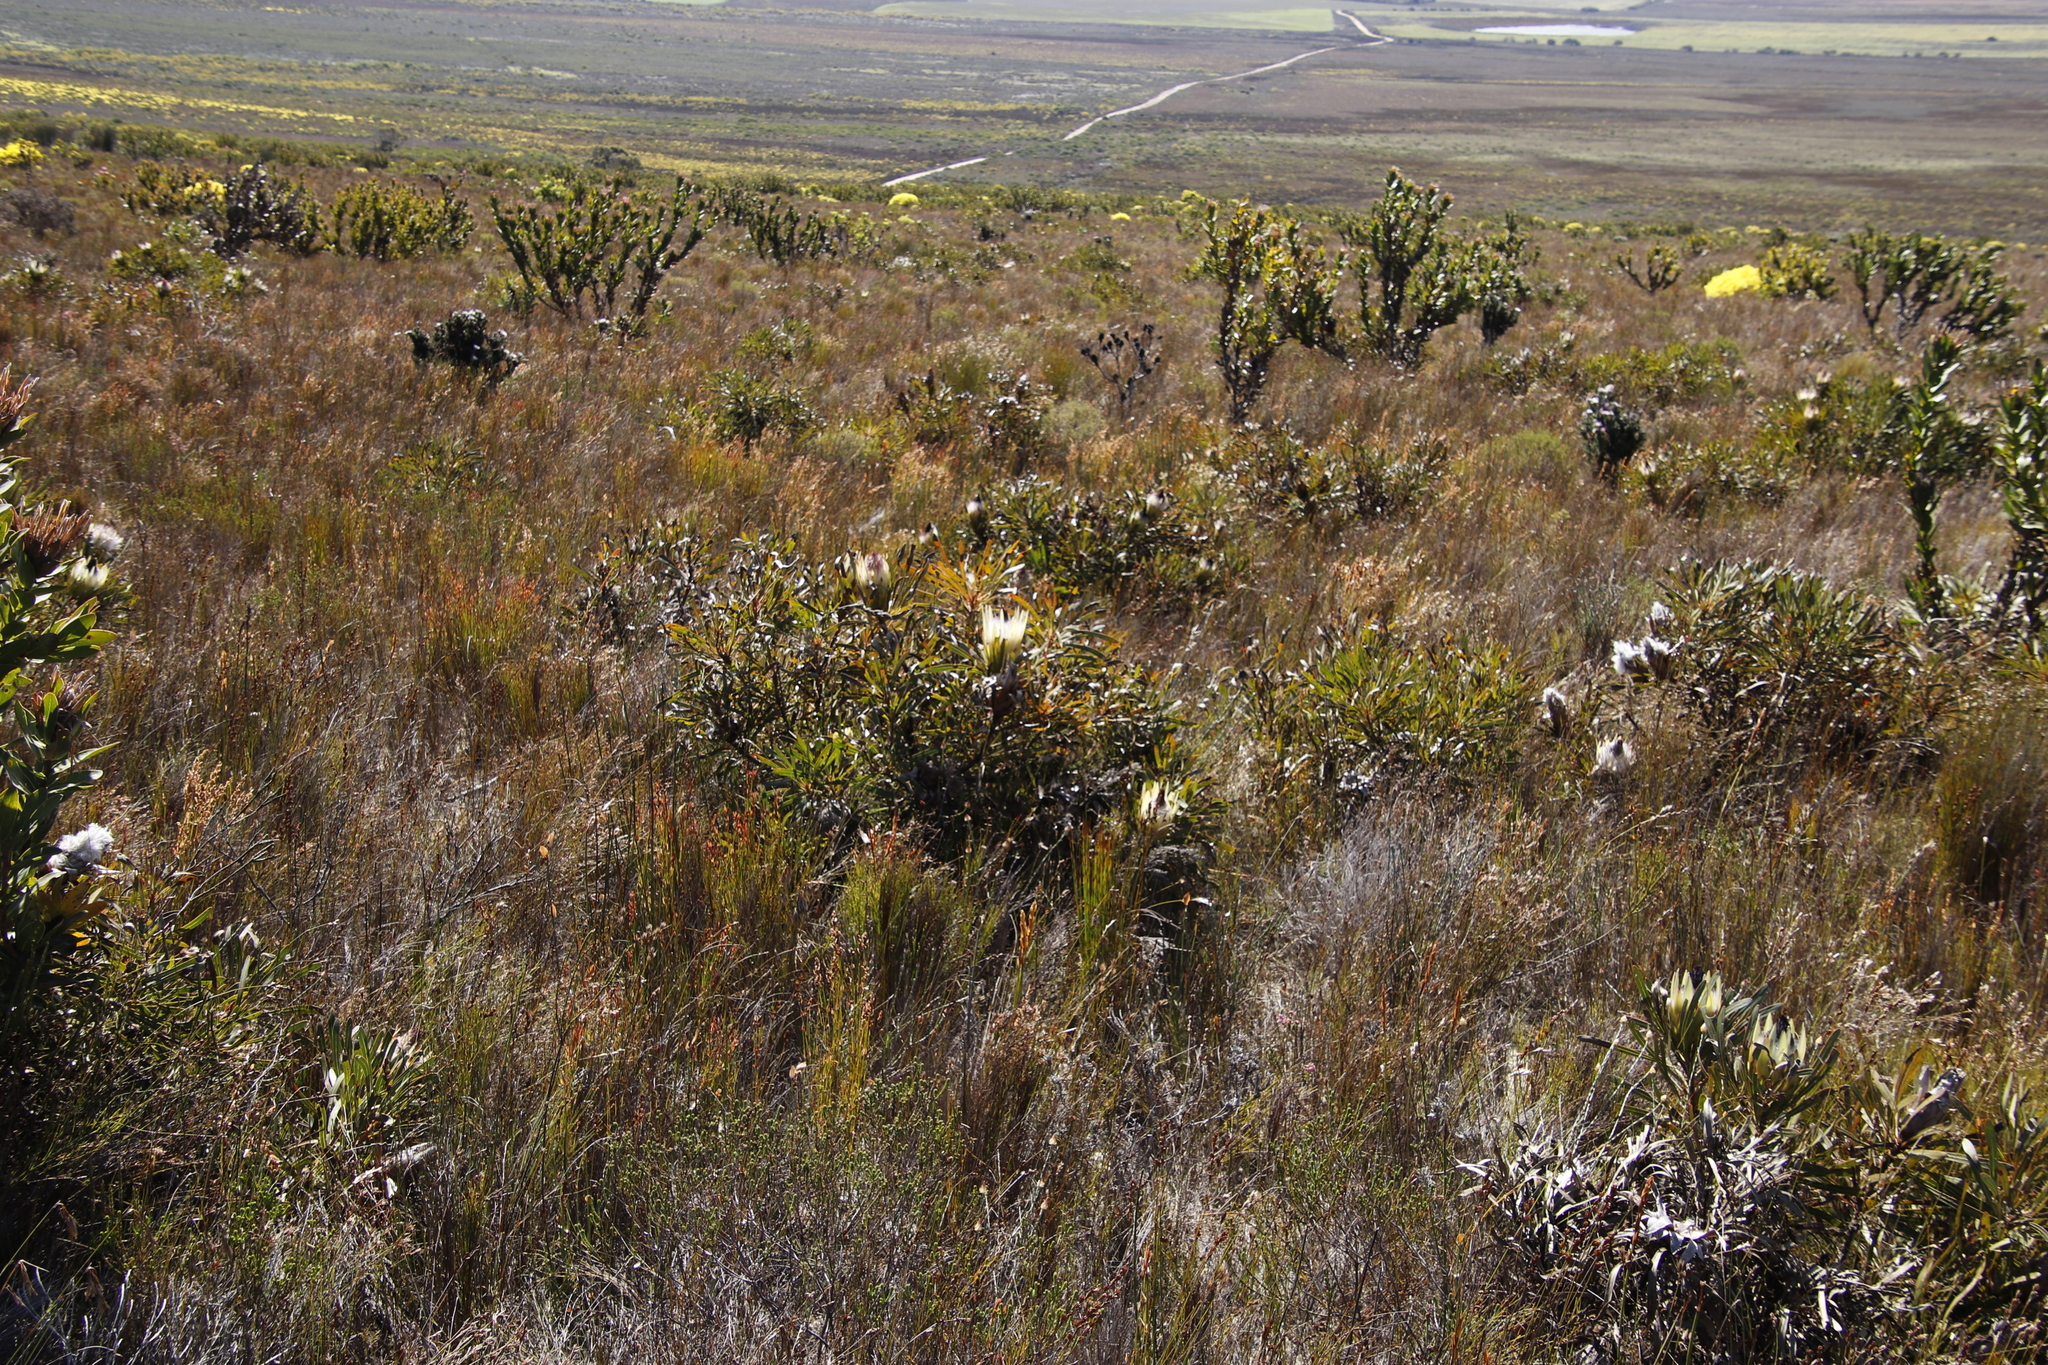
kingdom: Plantae
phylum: Tracheophyta
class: Magnoliopsida
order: Proteales
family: Proteaceae
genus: Protea
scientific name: Protea longifolia
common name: Long-leaf sugarbush
